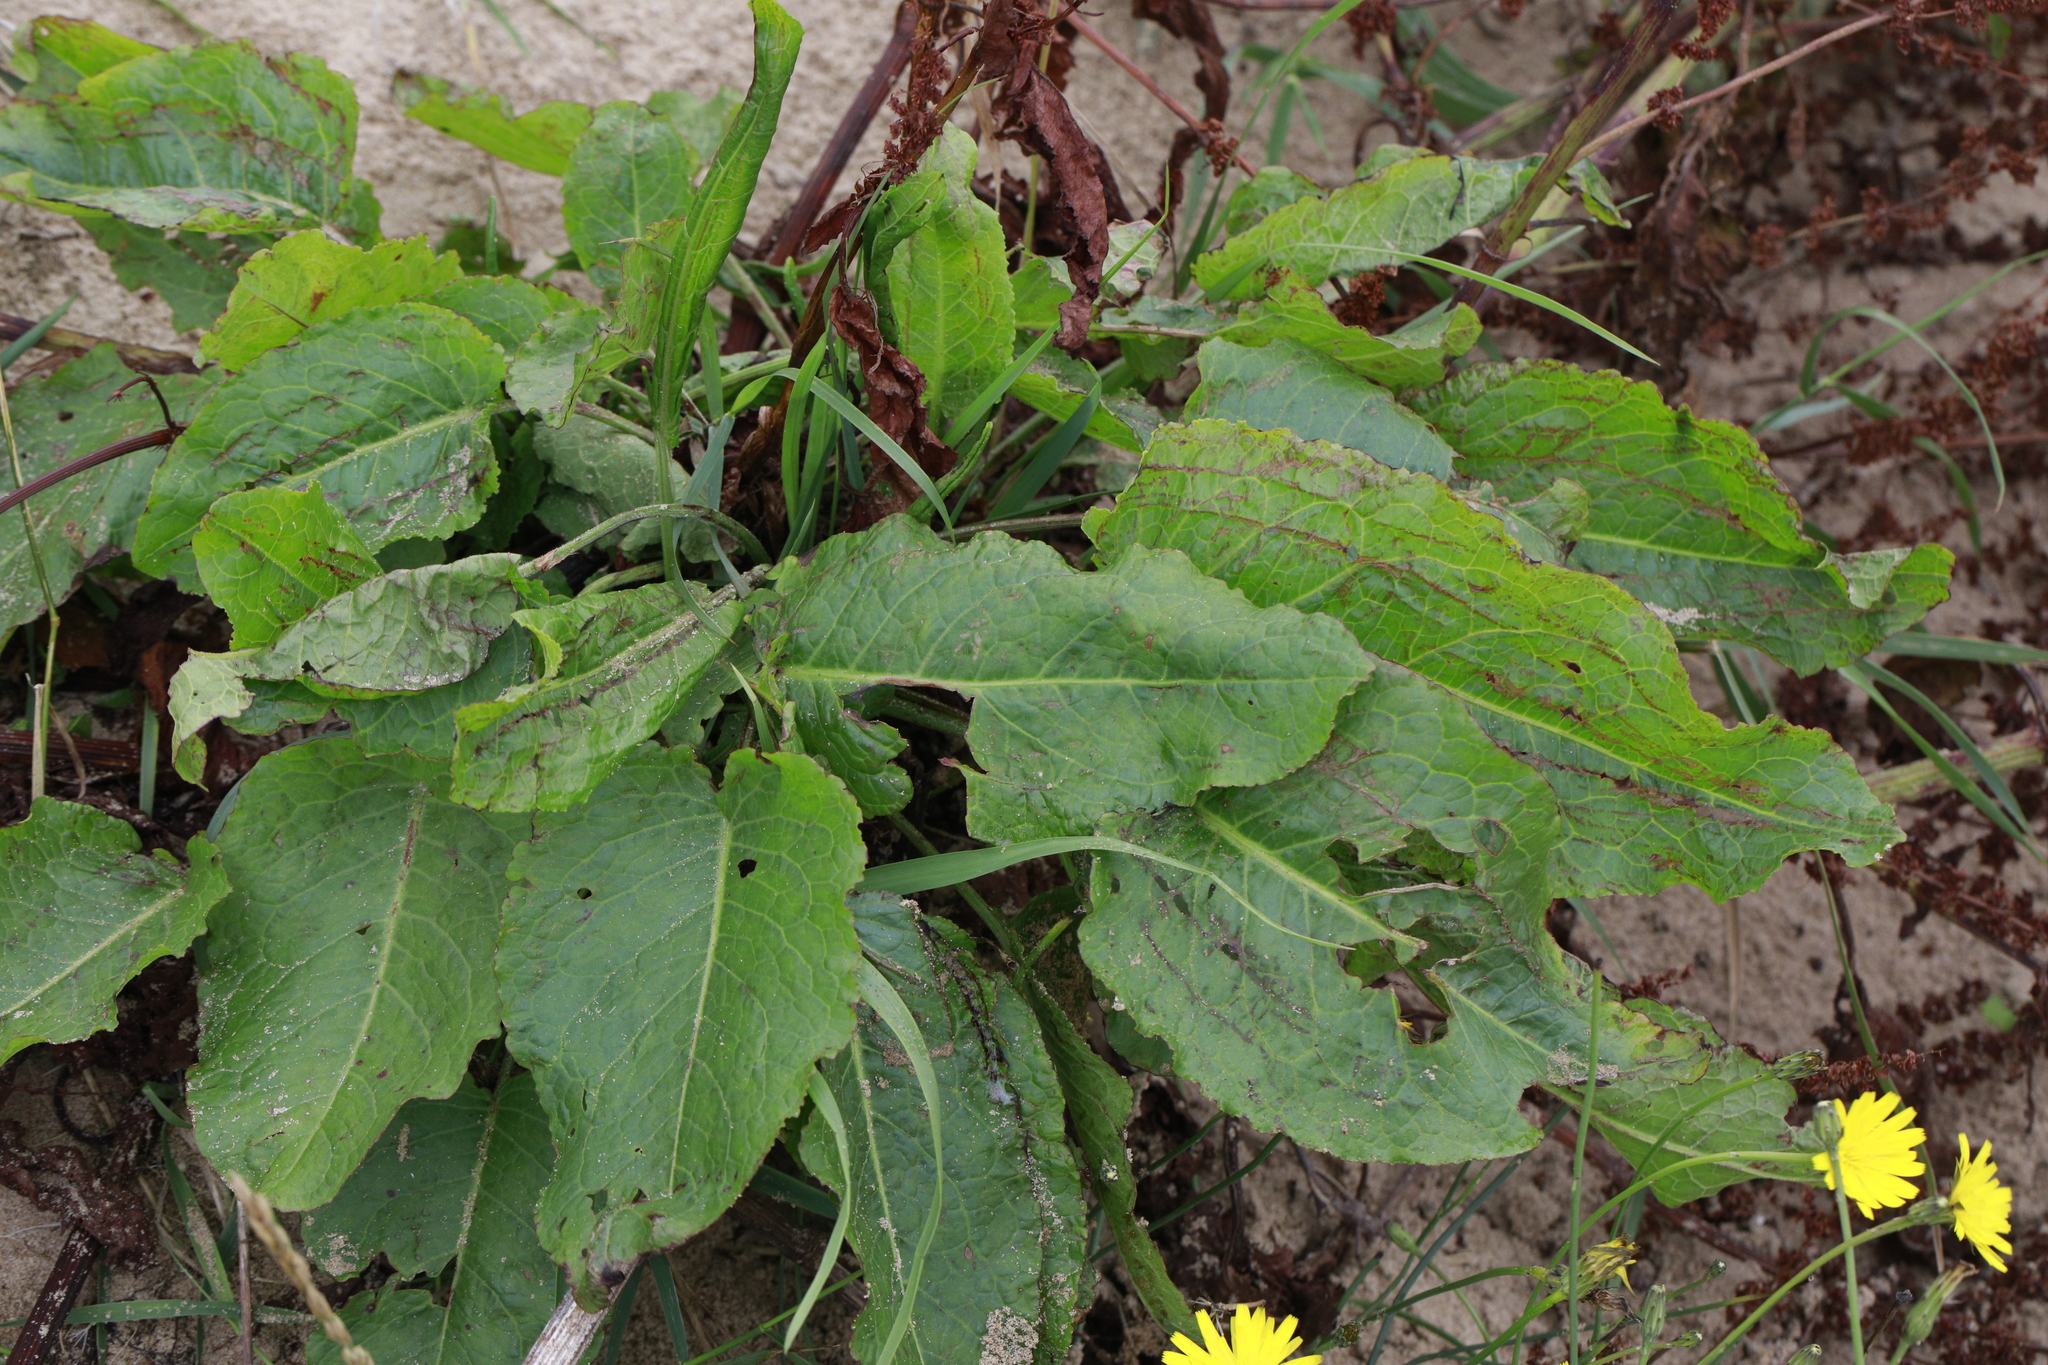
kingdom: Plantae
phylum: Tracheophyta
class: Magnoliopsida
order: Caryophyllales
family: Polygonaceae
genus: Rumex
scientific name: Rumex obtusifolius
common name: Bitter dock
